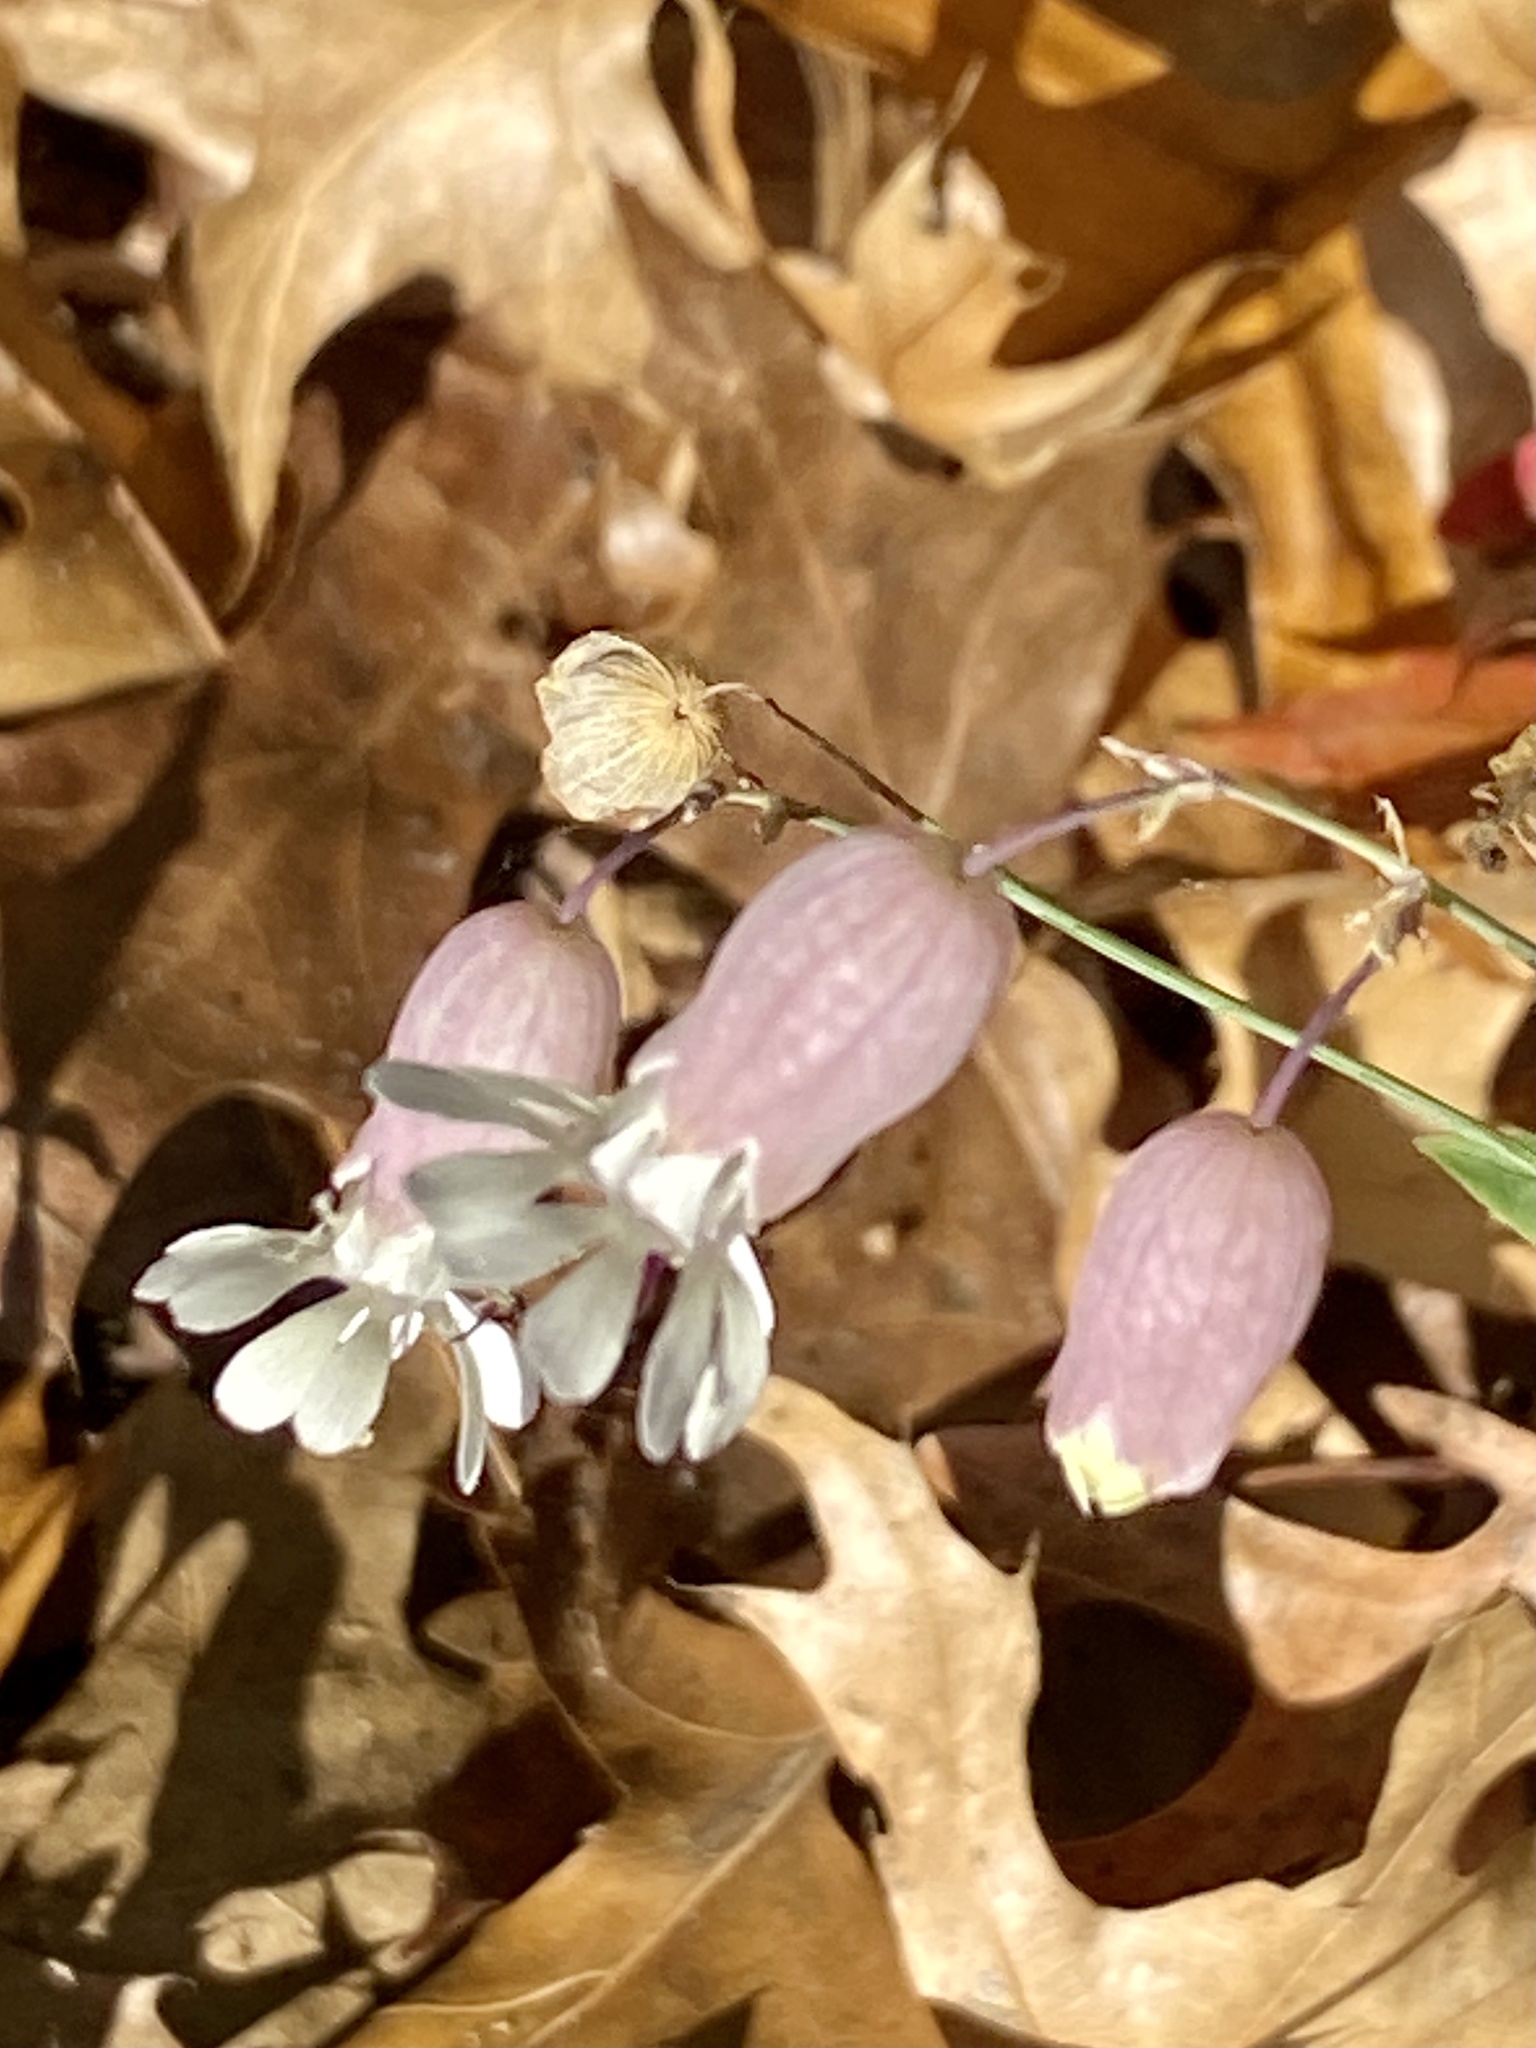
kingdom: Plantae
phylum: Tracheophyta
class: Magnoliopsida
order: Caryophyllales
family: Caryophyllaceae
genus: Silene
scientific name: Silene vulgaris
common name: Bladder campion
